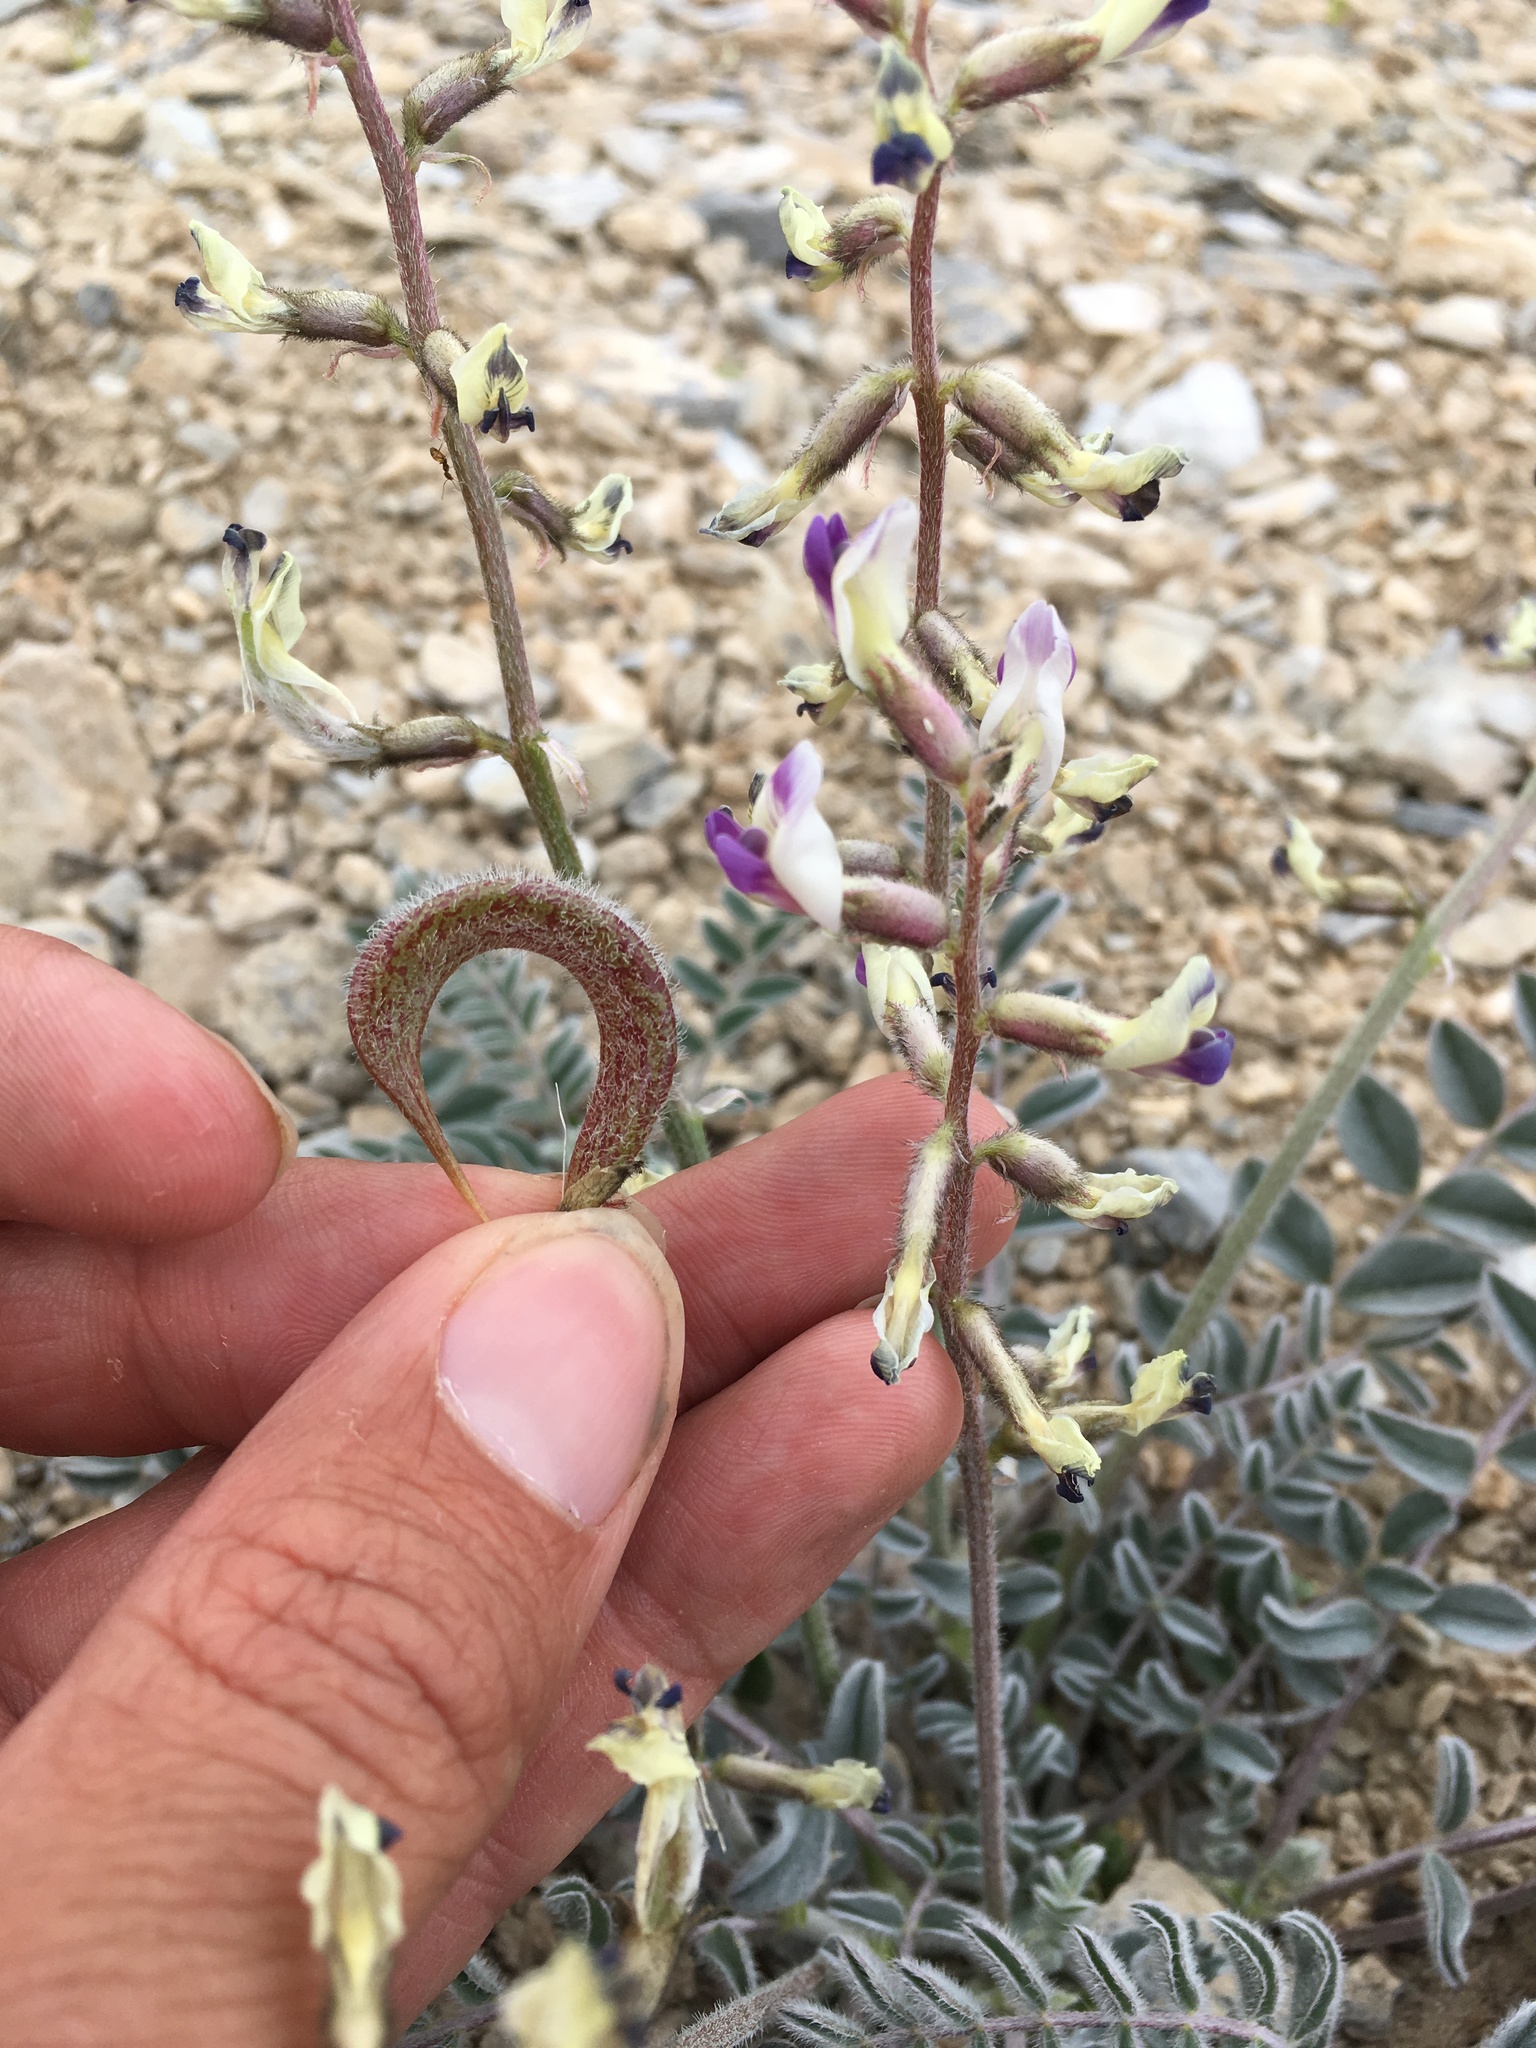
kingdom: Plantae
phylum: Tracheophyta
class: Magnoliopsida
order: Fabales
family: Fabaceae
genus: Astragalus
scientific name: Astragalus layneae
